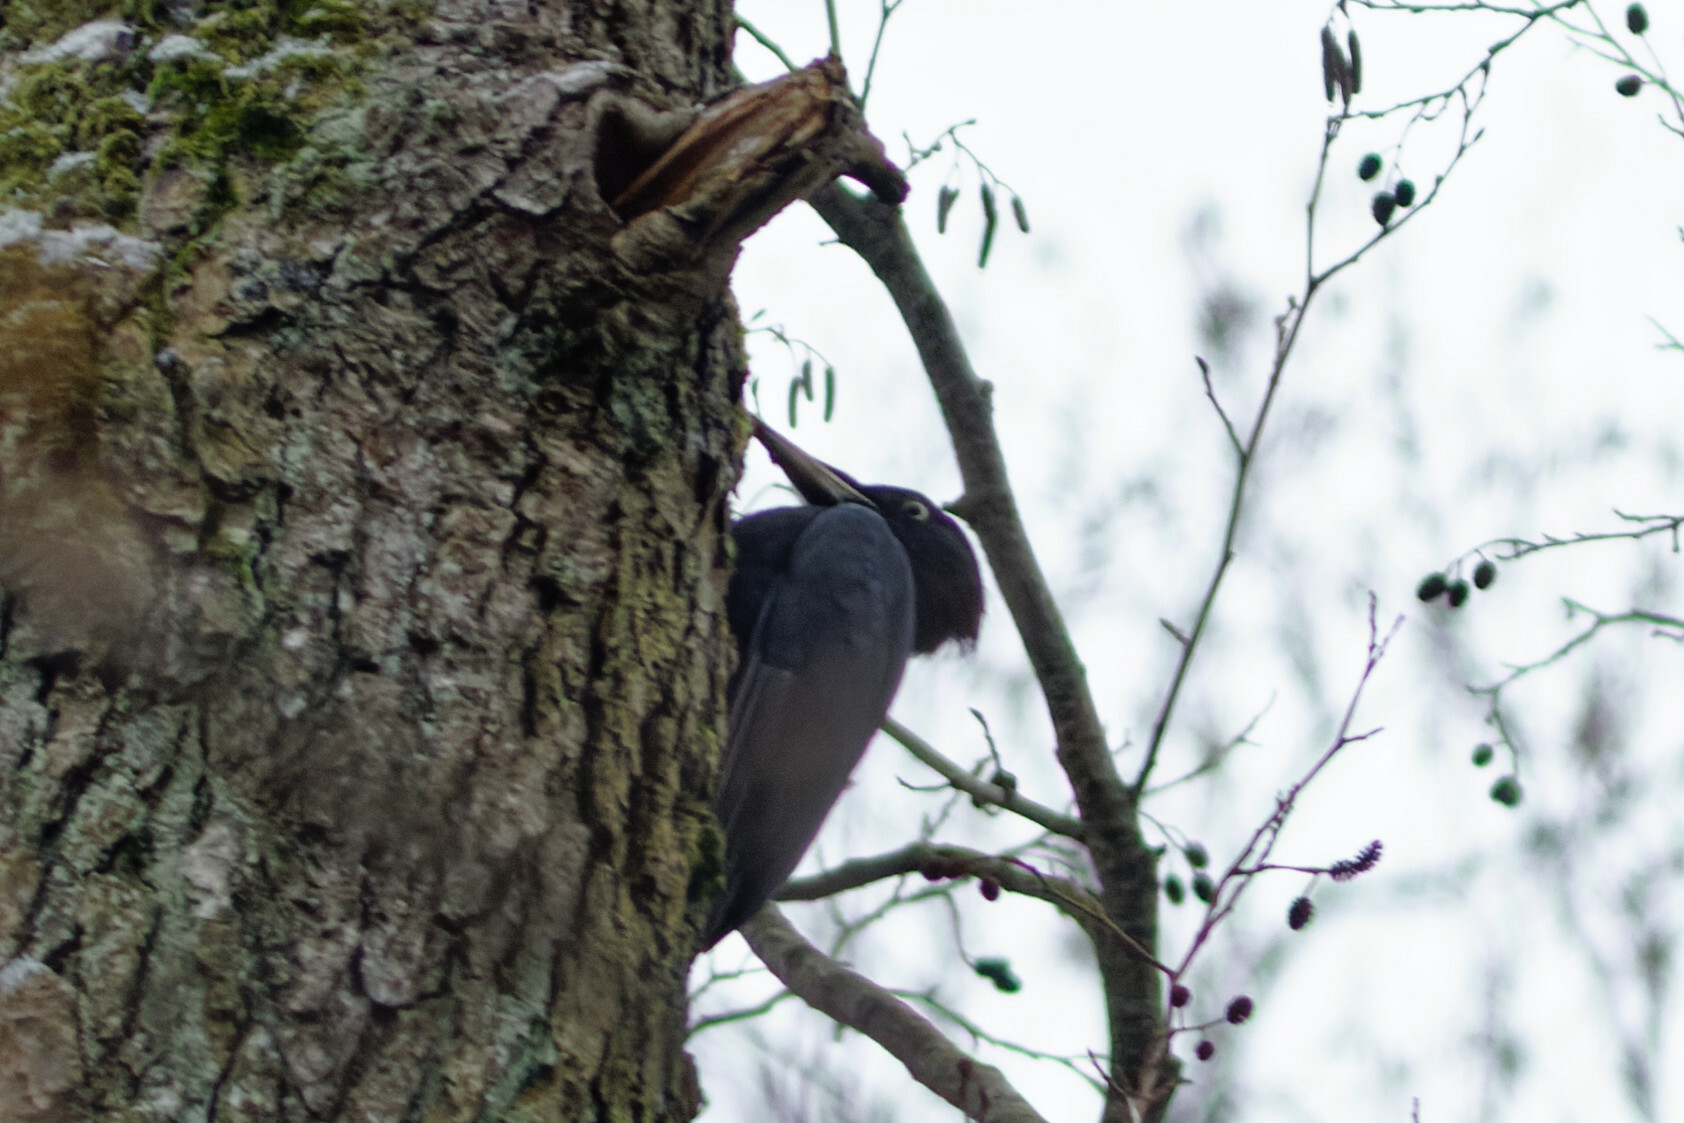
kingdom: Animalia
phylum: Chordata
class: Aves
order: Piciformes
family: Picidae
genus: Dryocopus
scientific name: Dryocopus martius
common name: Black woodpecker
